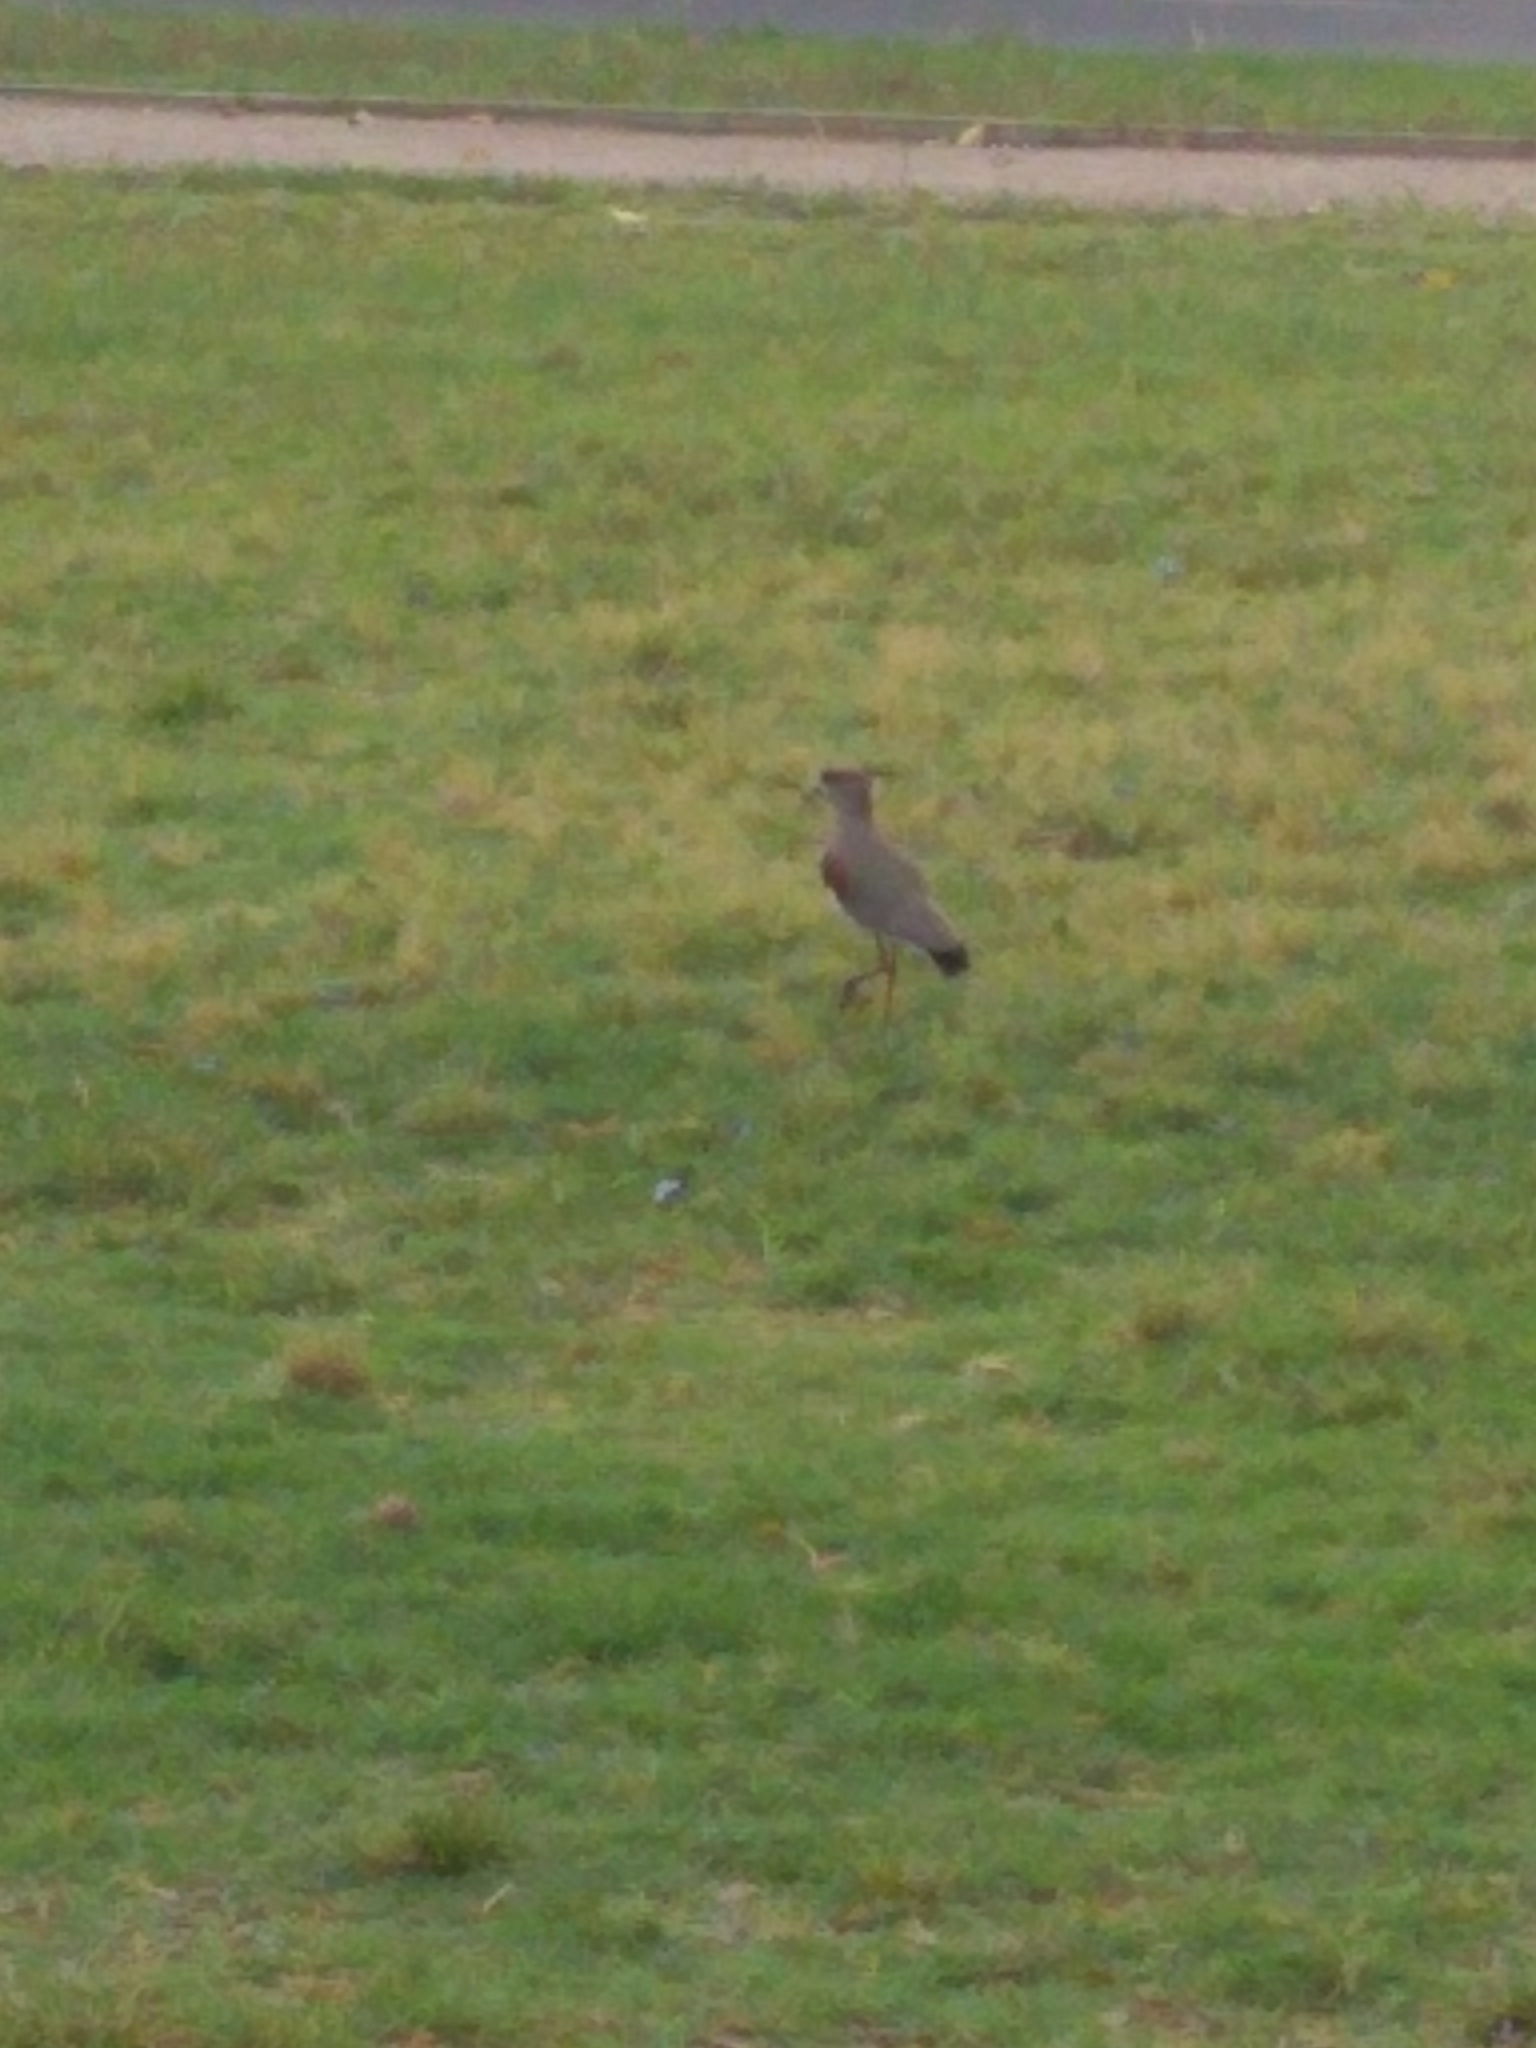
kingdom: Animalia
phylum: Chordata
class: Aves
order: Charadriiformes
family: Charadriidae
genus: Vanellus
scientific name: Vanellus chilensis
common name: Southern lapwing
